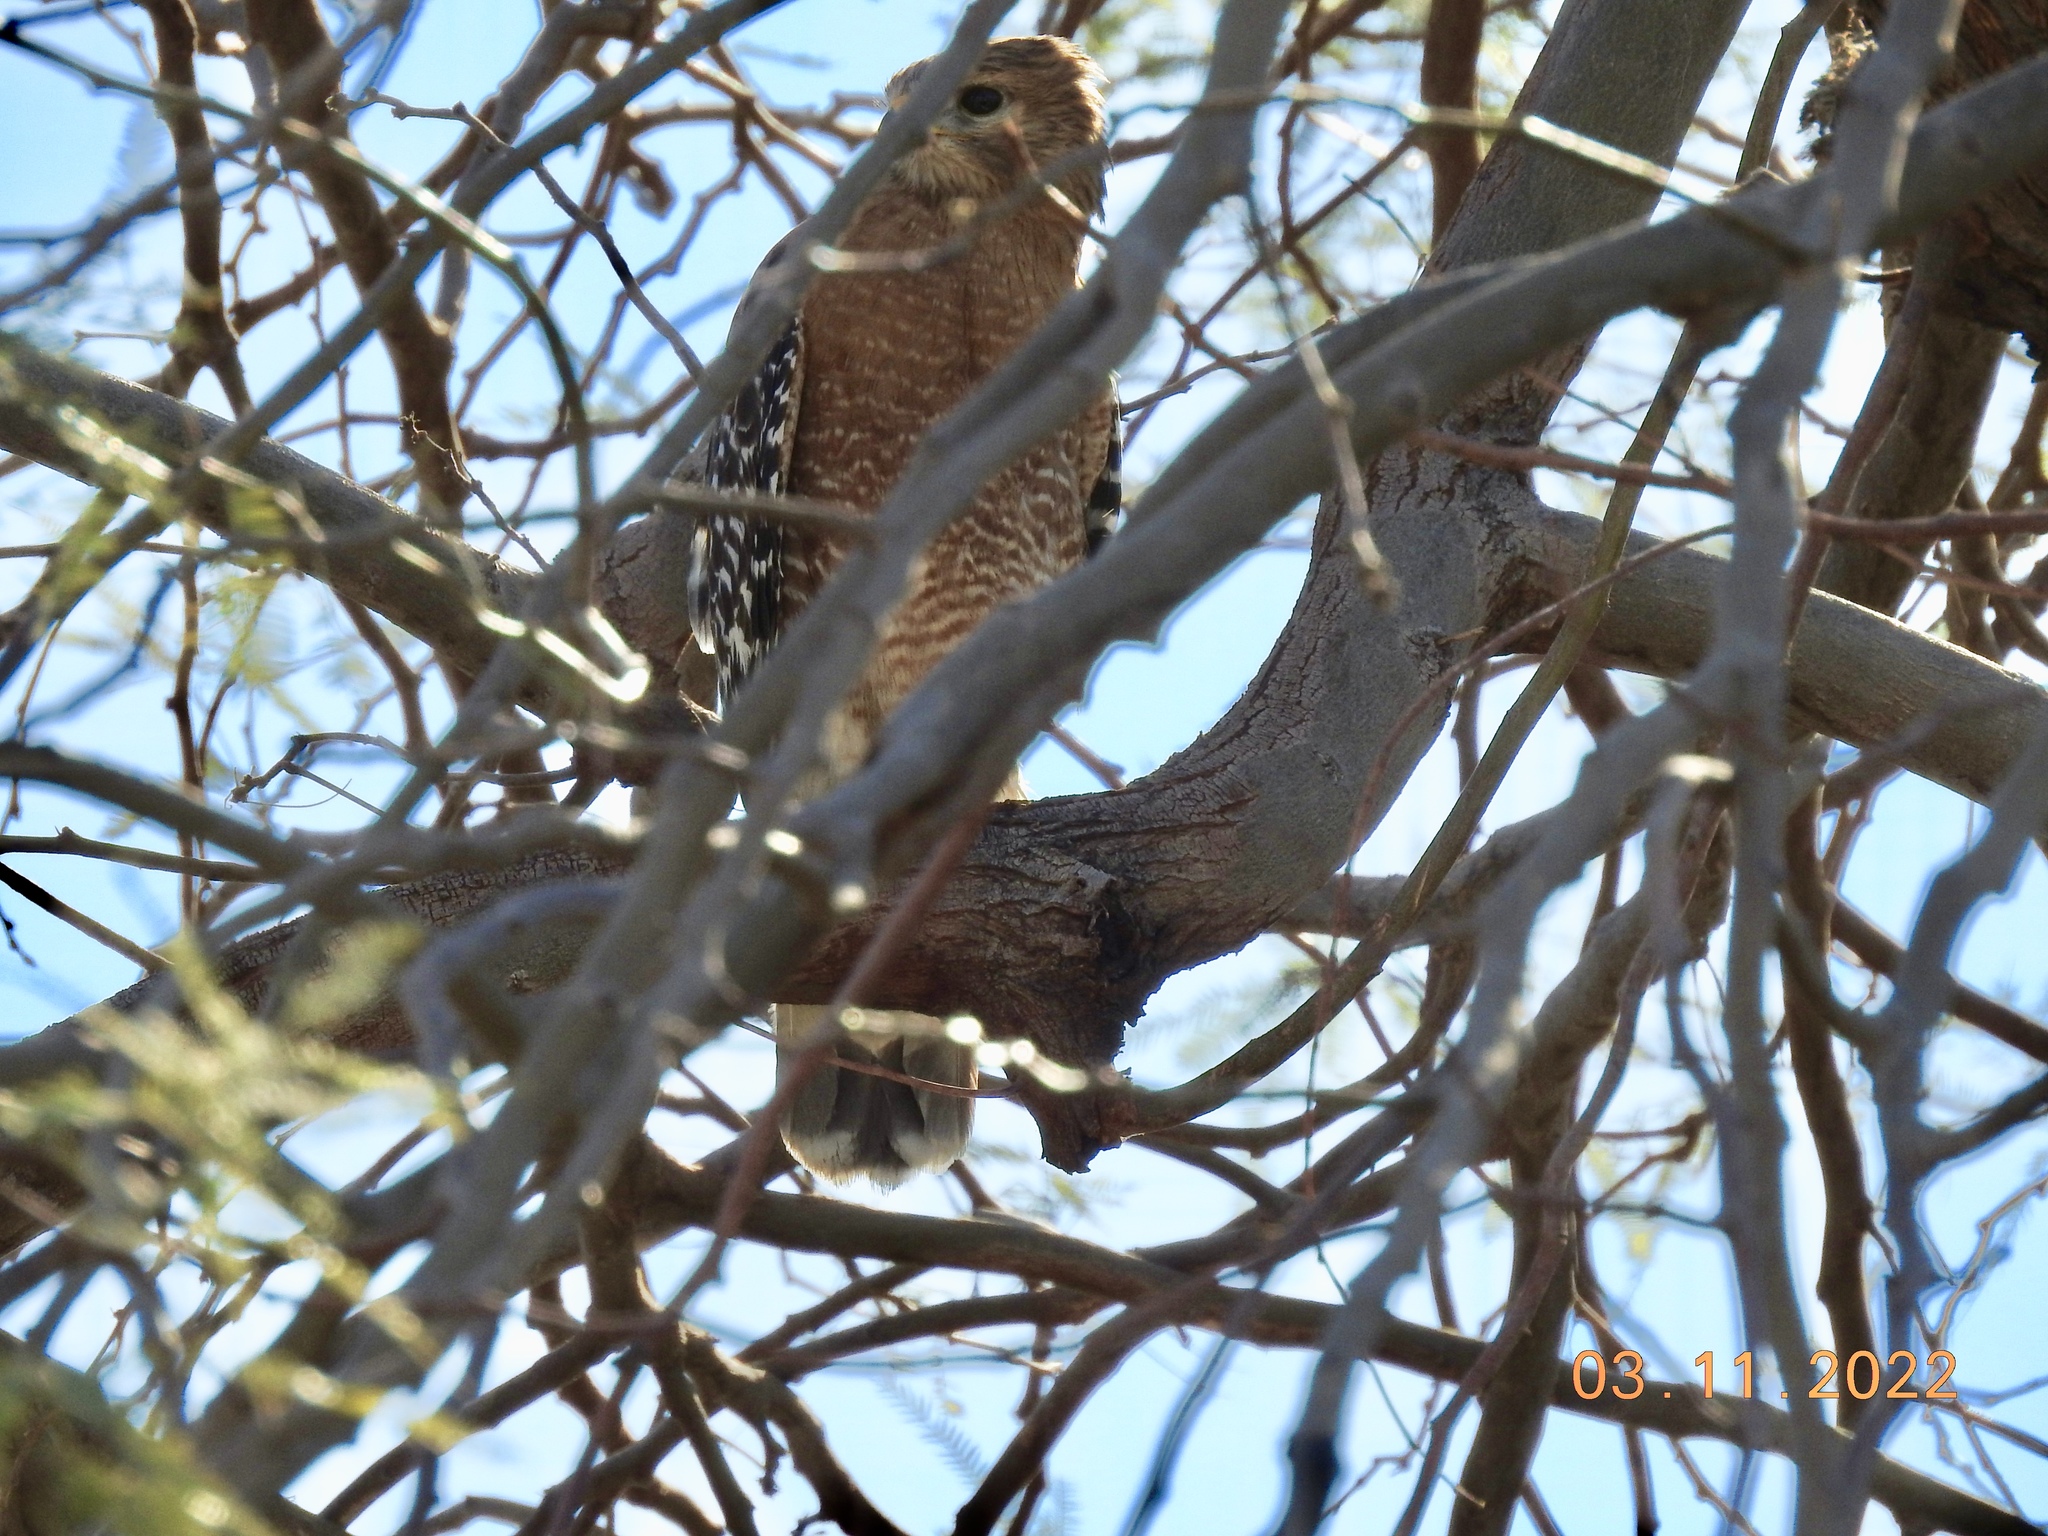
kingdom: Animalia
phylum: Chordata
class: Aves
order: Accipitriformes
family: Accipitridae
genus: Buteo
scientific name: Buteo lineatus
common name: Red-shouldered hawk
